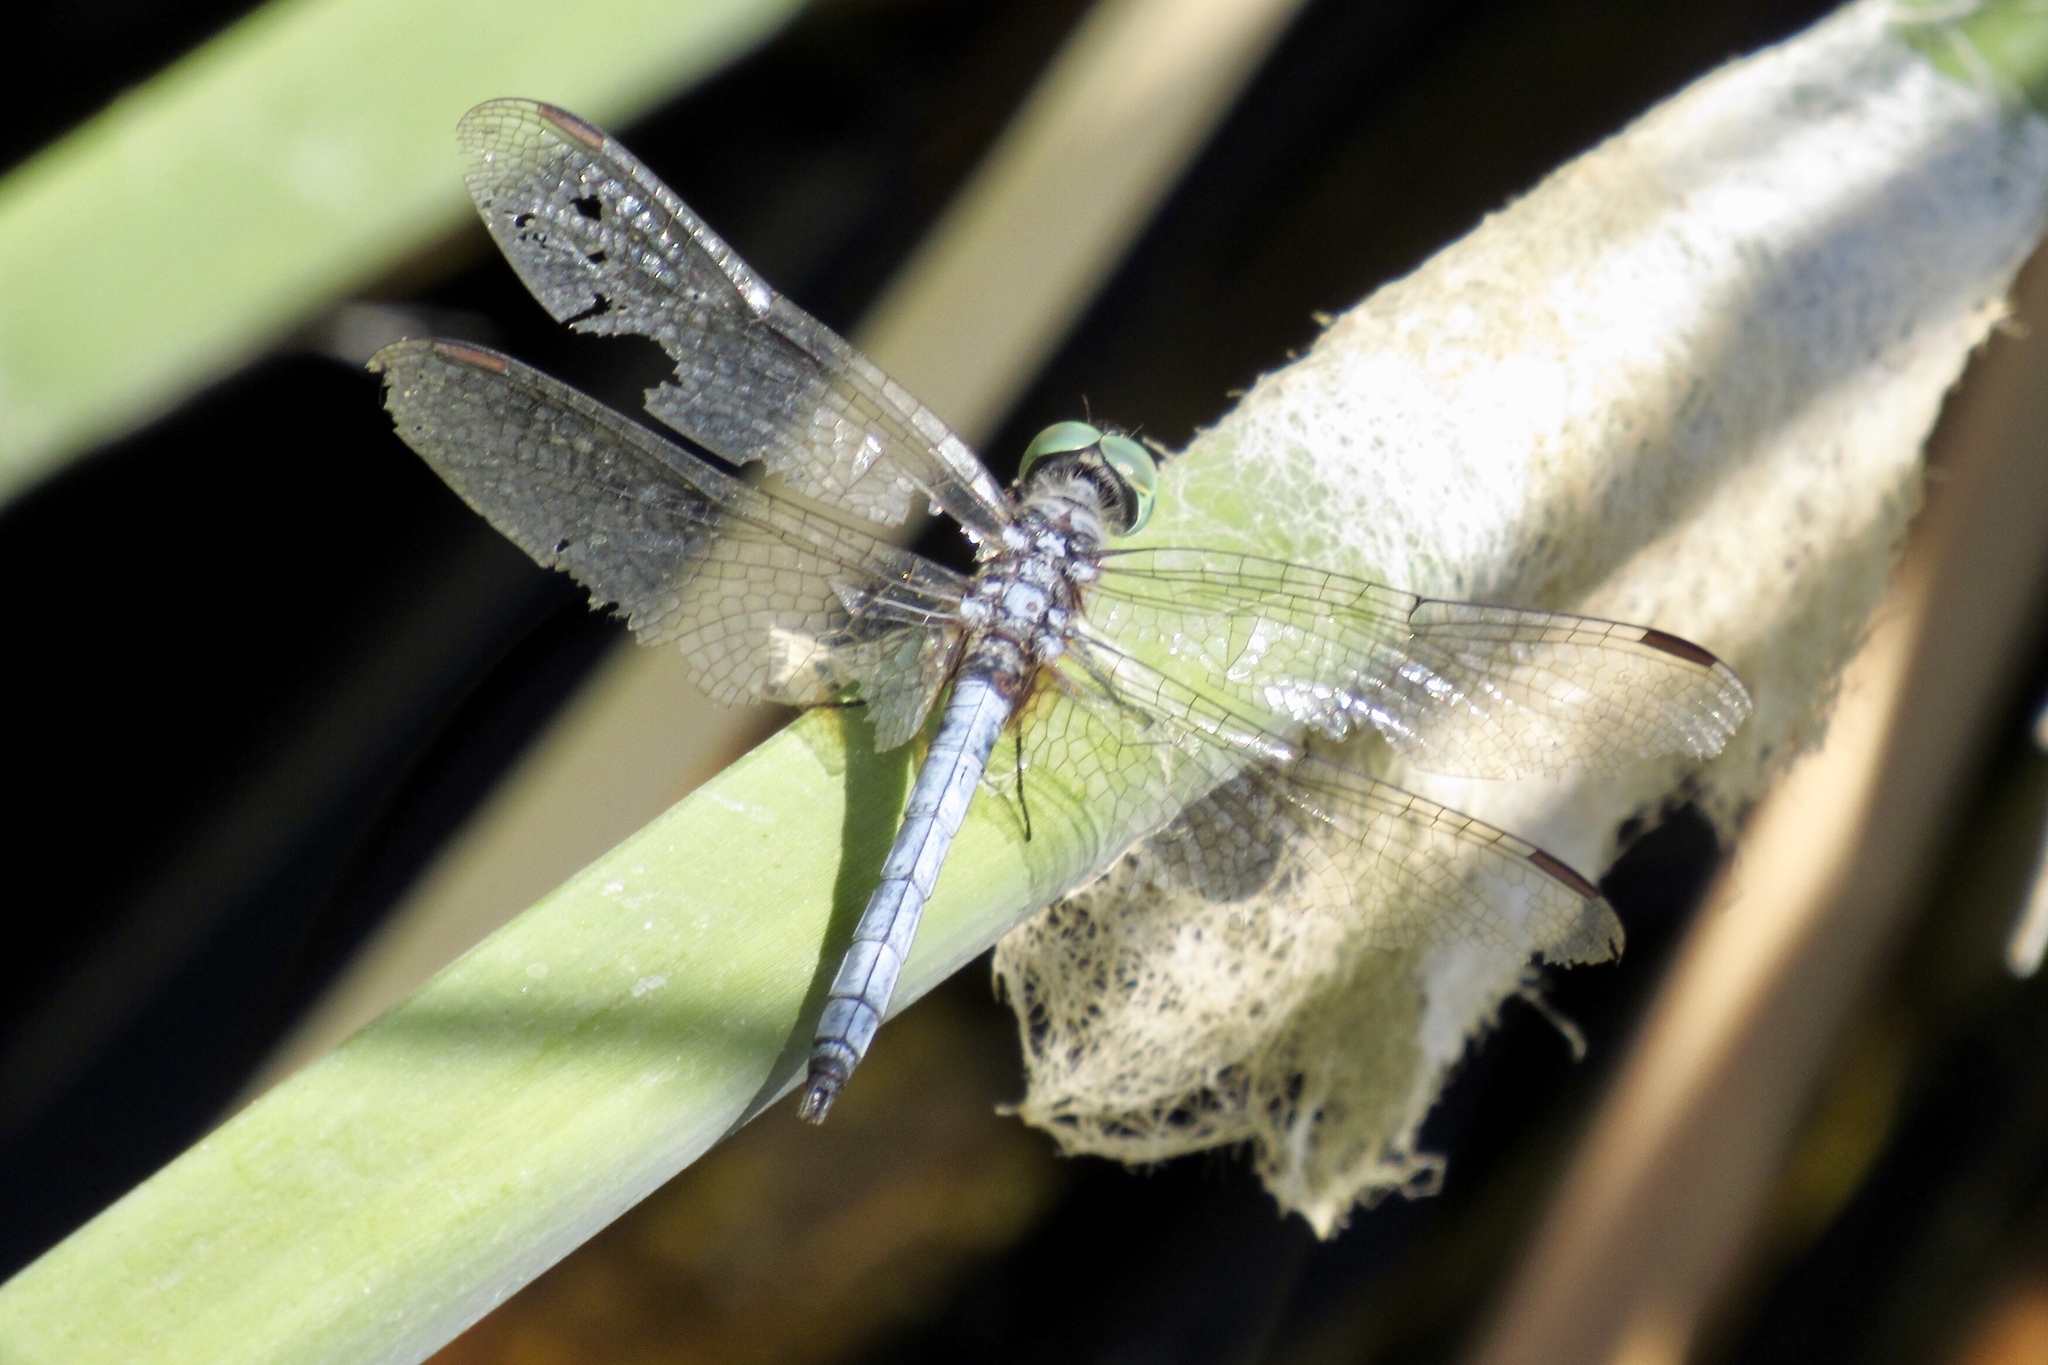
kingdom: Animalia
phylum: Arthropoda
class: Insecta
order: Odonata
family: Libellulidae
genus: Pachydiplax
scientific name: Pachydiplax longipennis
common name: Blue dasher
